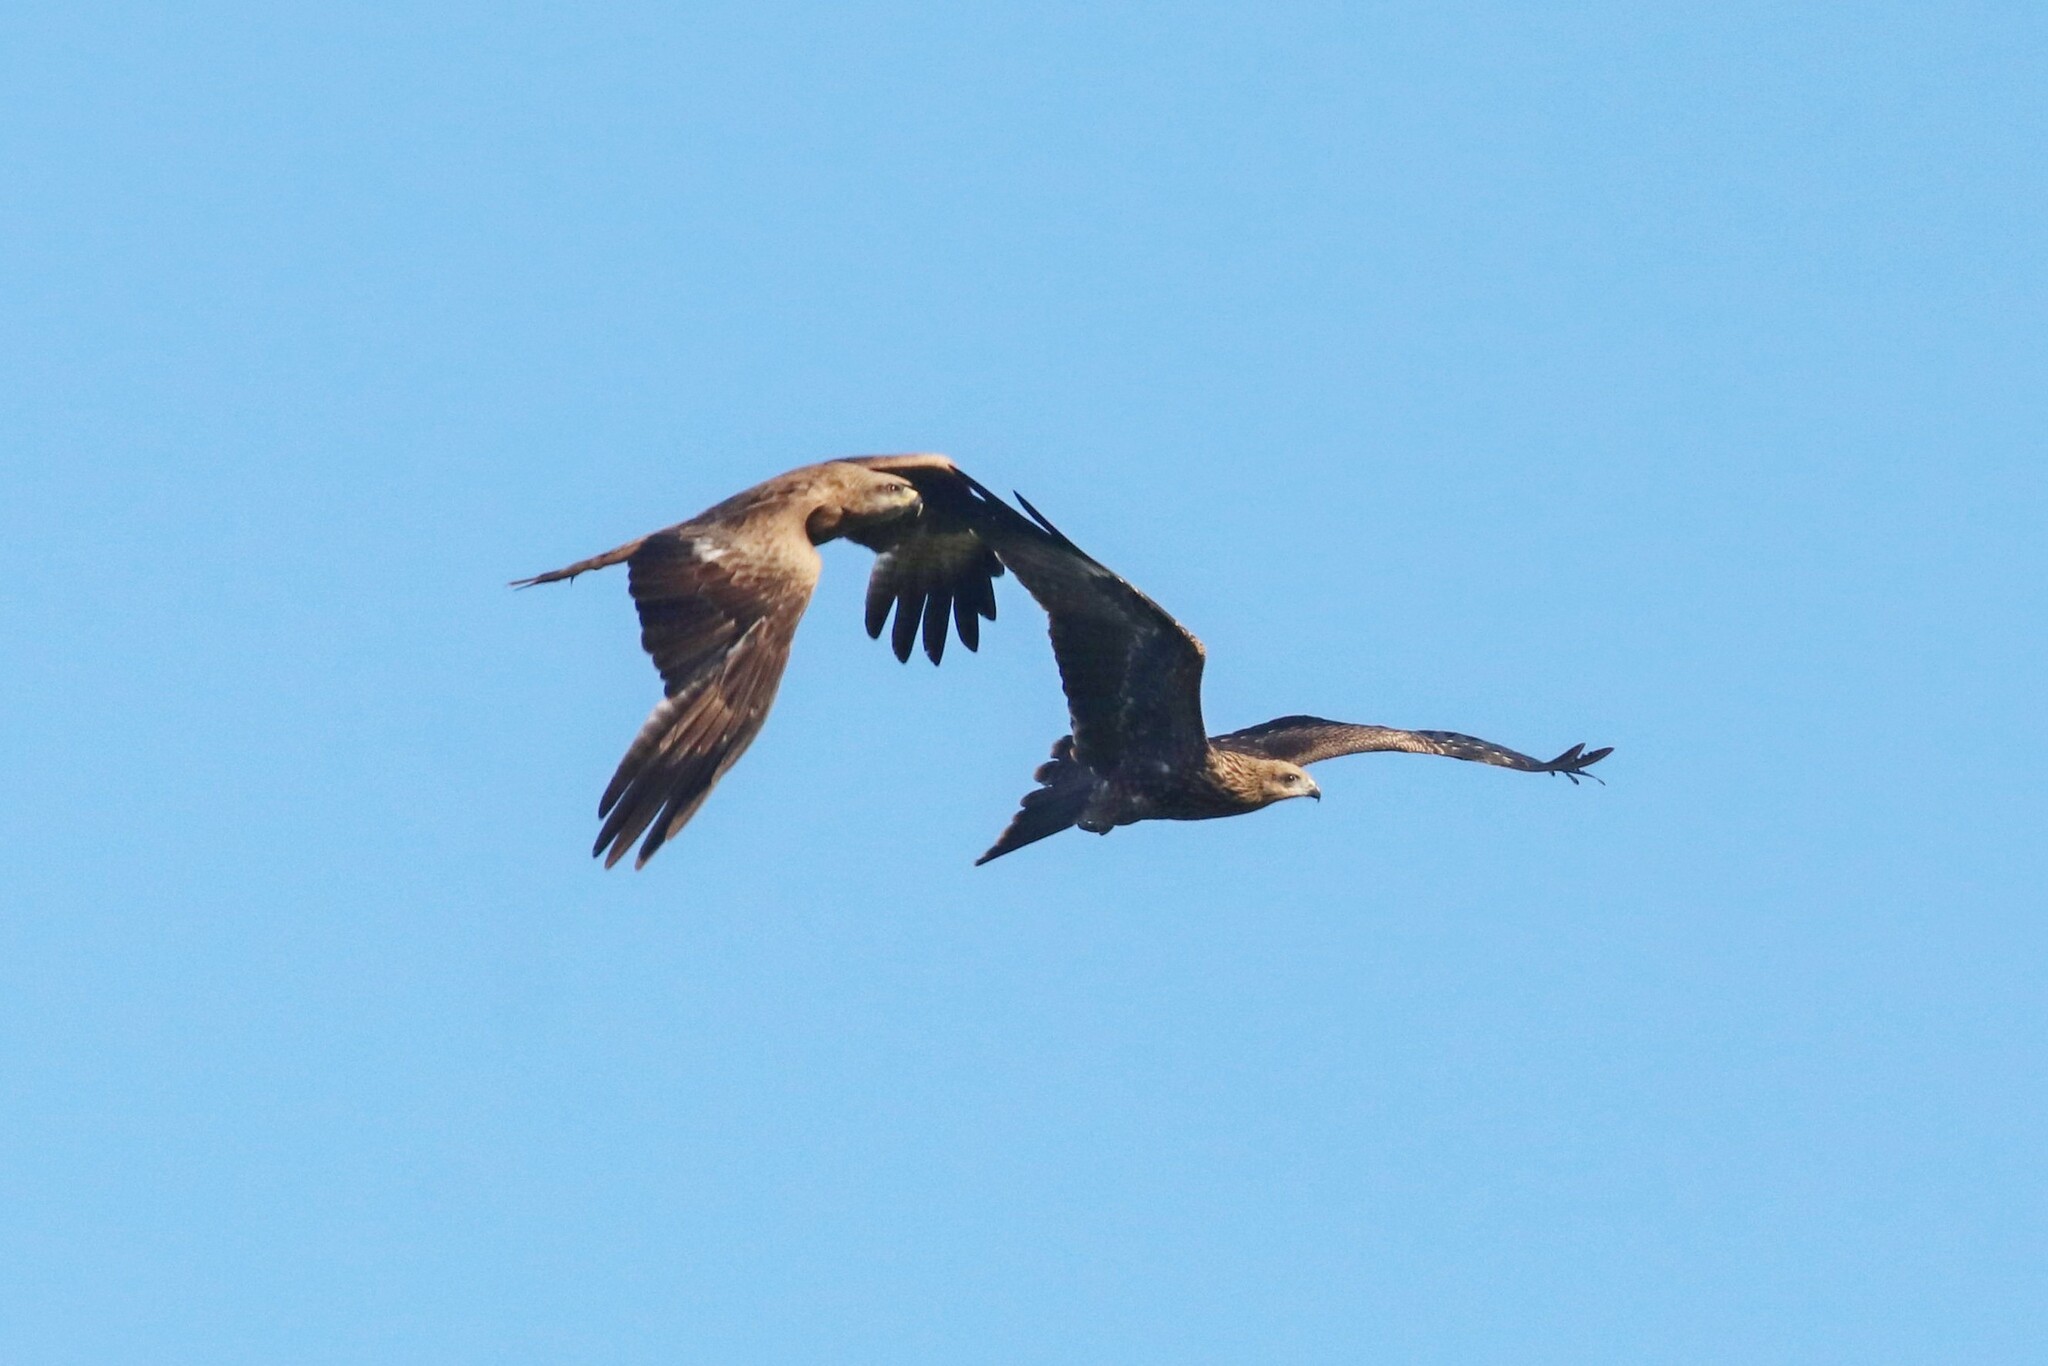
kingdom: Animalia
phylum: Chordata
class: Aves
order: Accipitriformes
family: Accipitridae
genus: Milvus
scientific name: Milvus migrans
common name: Black kite
